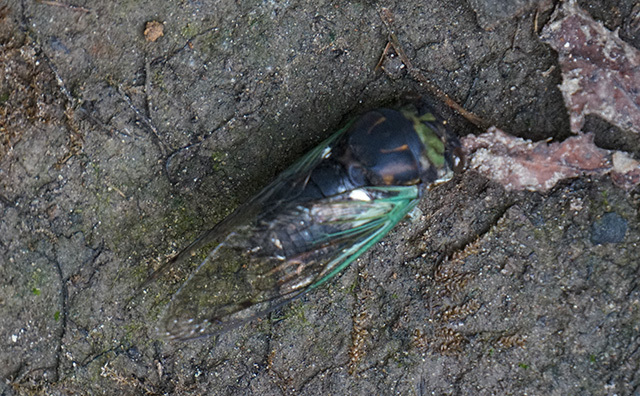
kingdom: Animalia
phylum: Arthropoda
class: Insecta
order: Hemiptera
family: Cicadidae
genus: Neotibicen
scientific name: Neotibicen tibicen
